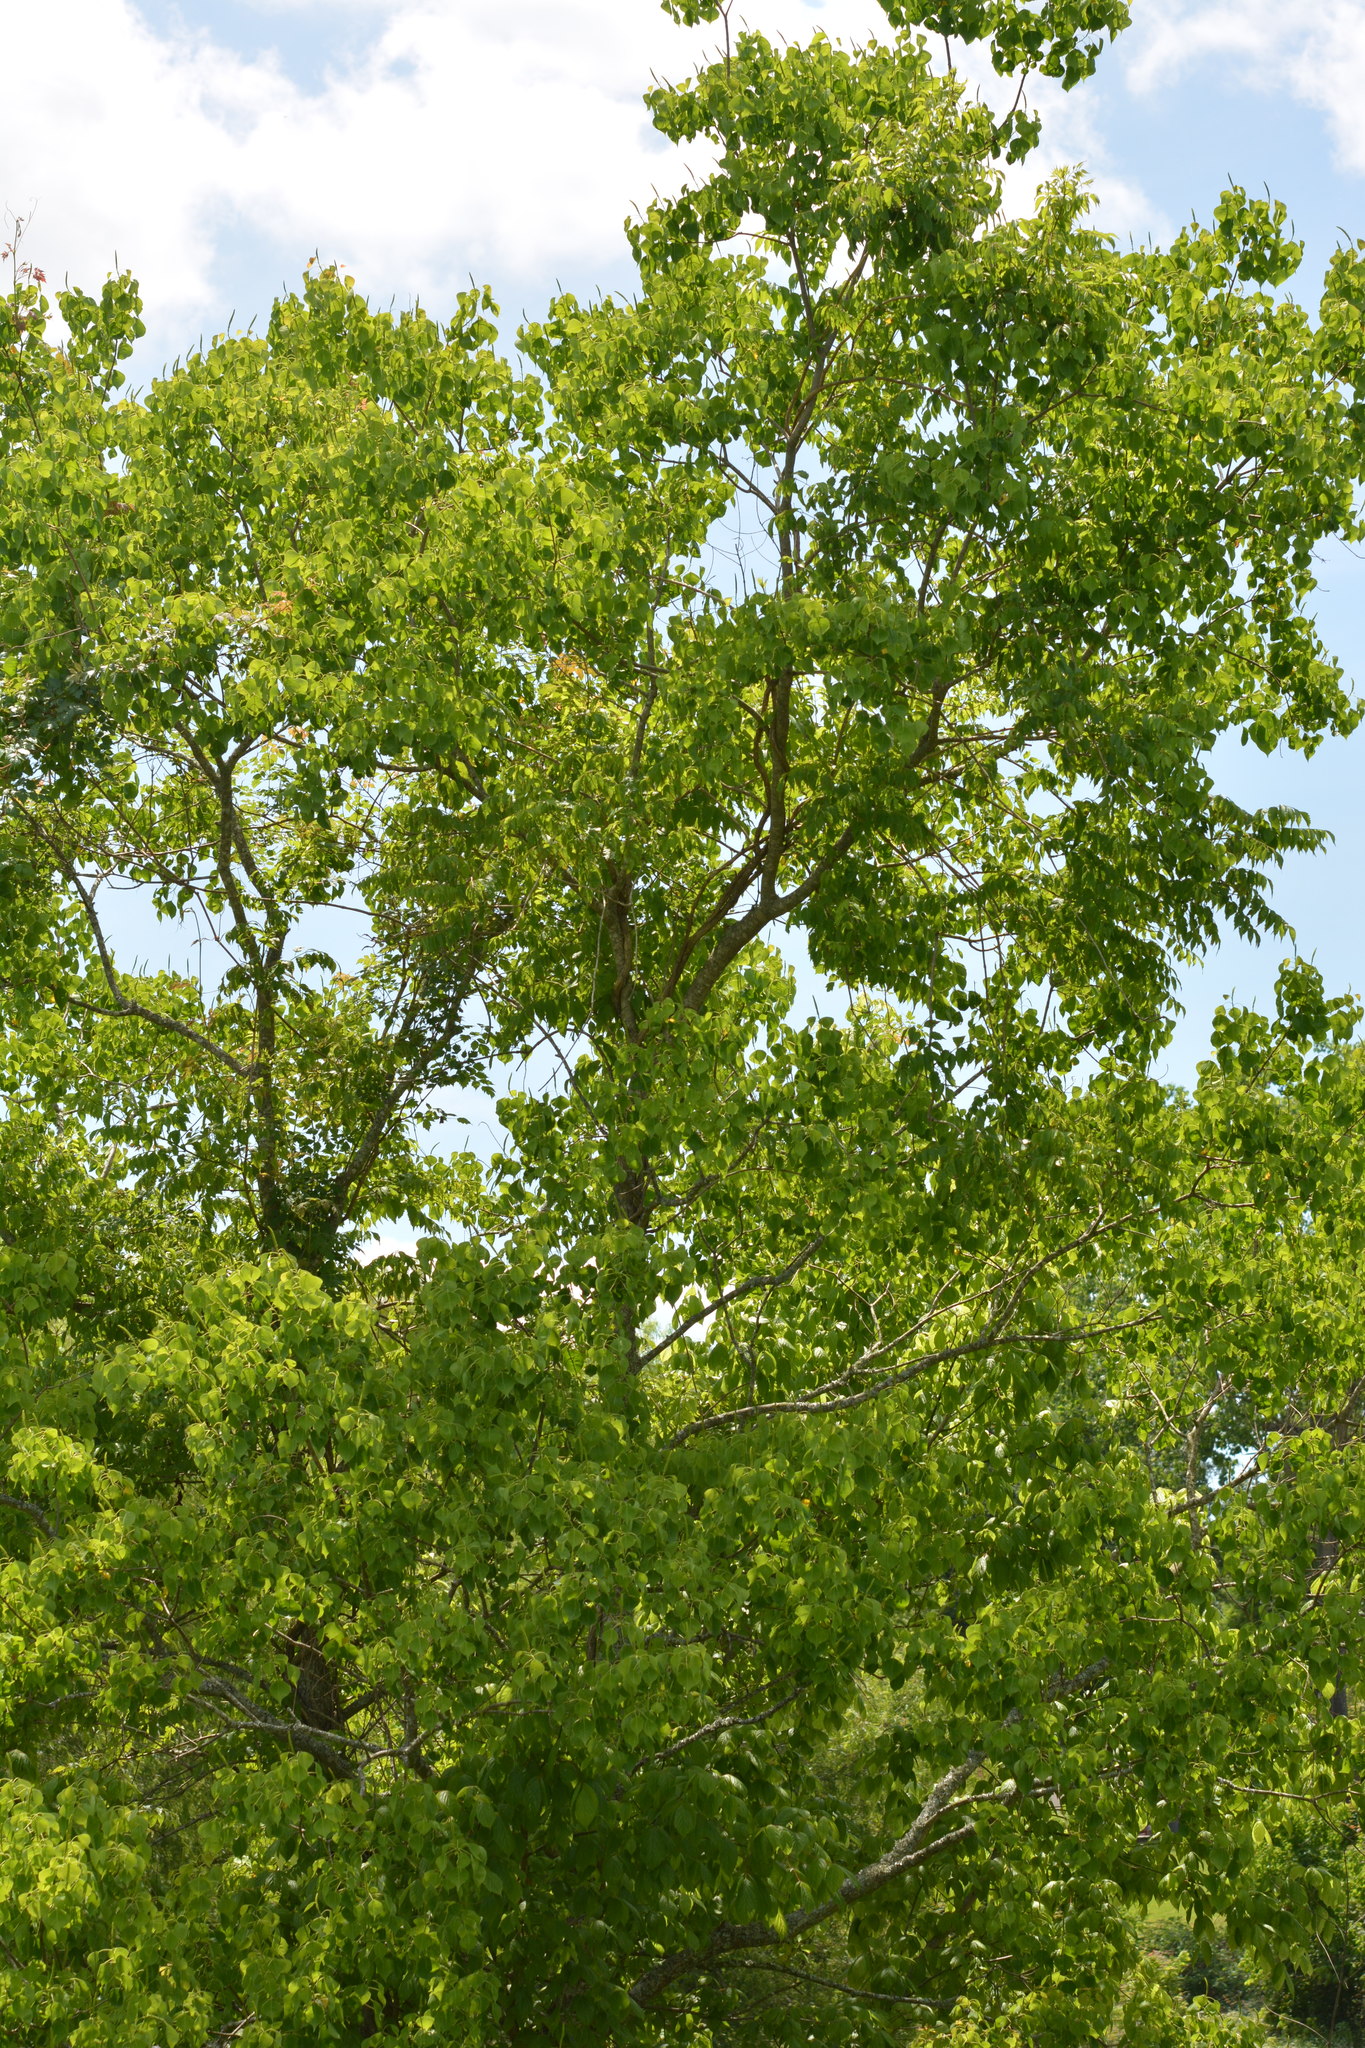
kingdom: Plantae
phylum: Tracheophyta
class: Magnoliopsida
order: Malpighiales
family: Euphorbiaceae
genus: Triadica
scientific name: Triadica sebifera
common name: Chinese tallow
